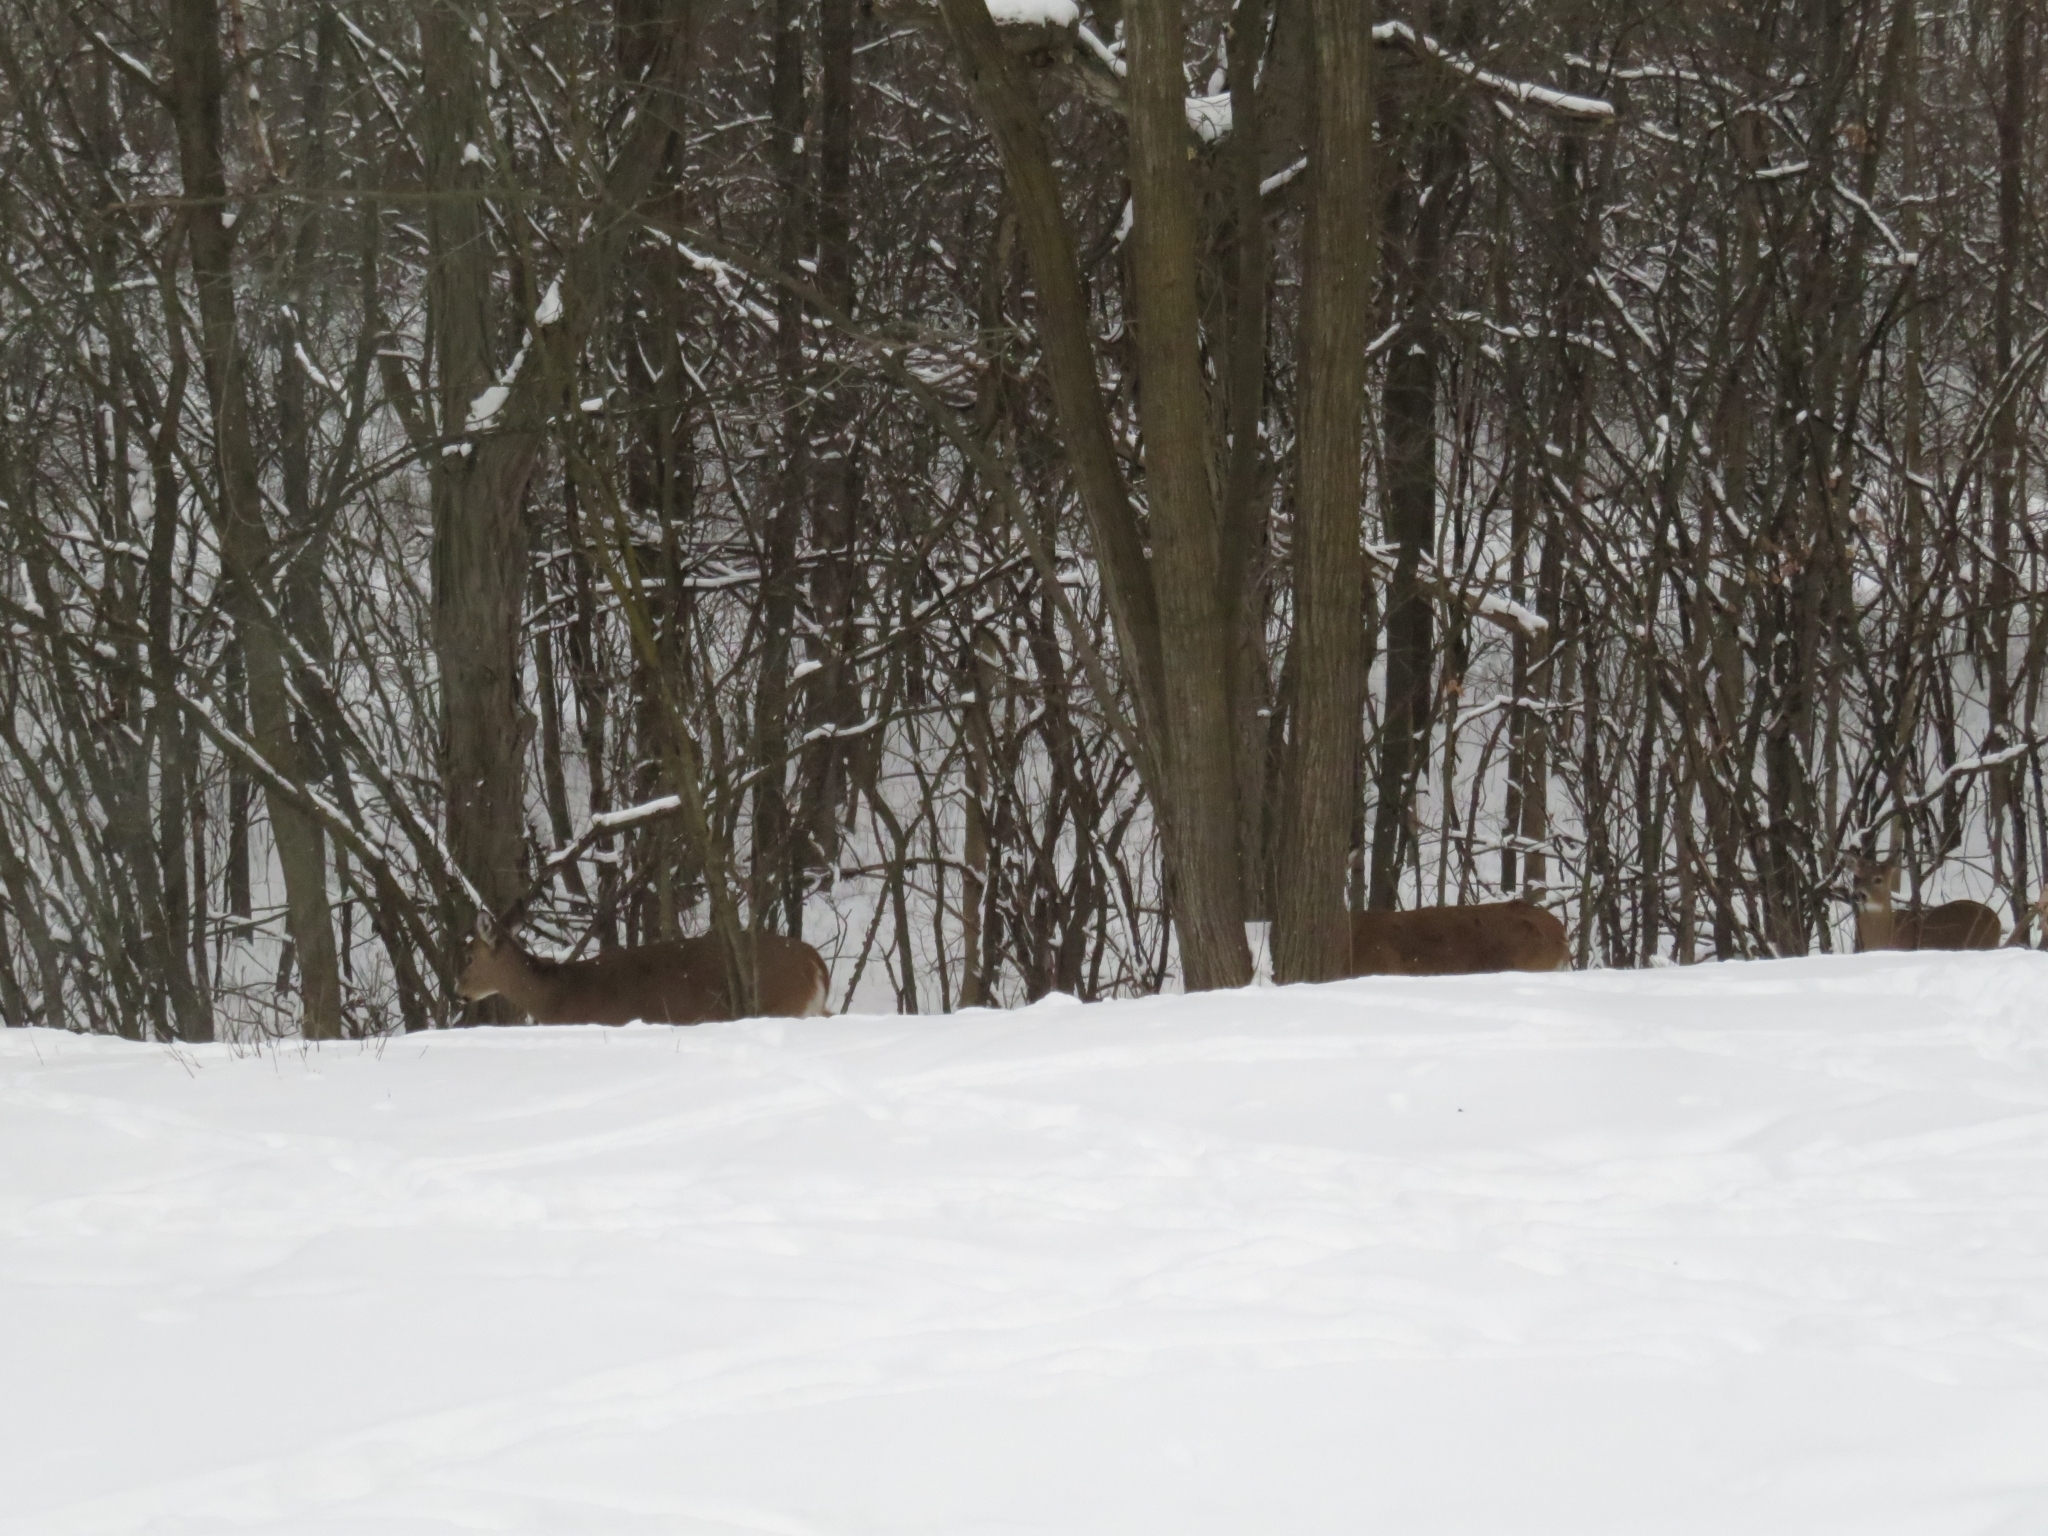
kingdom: Animalia
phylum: Chordata
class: Mammalia
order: Artiodactyla
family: Cervidae
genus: Odocoileus
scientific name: Odocoileus virginianus
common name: White-tailed deer
